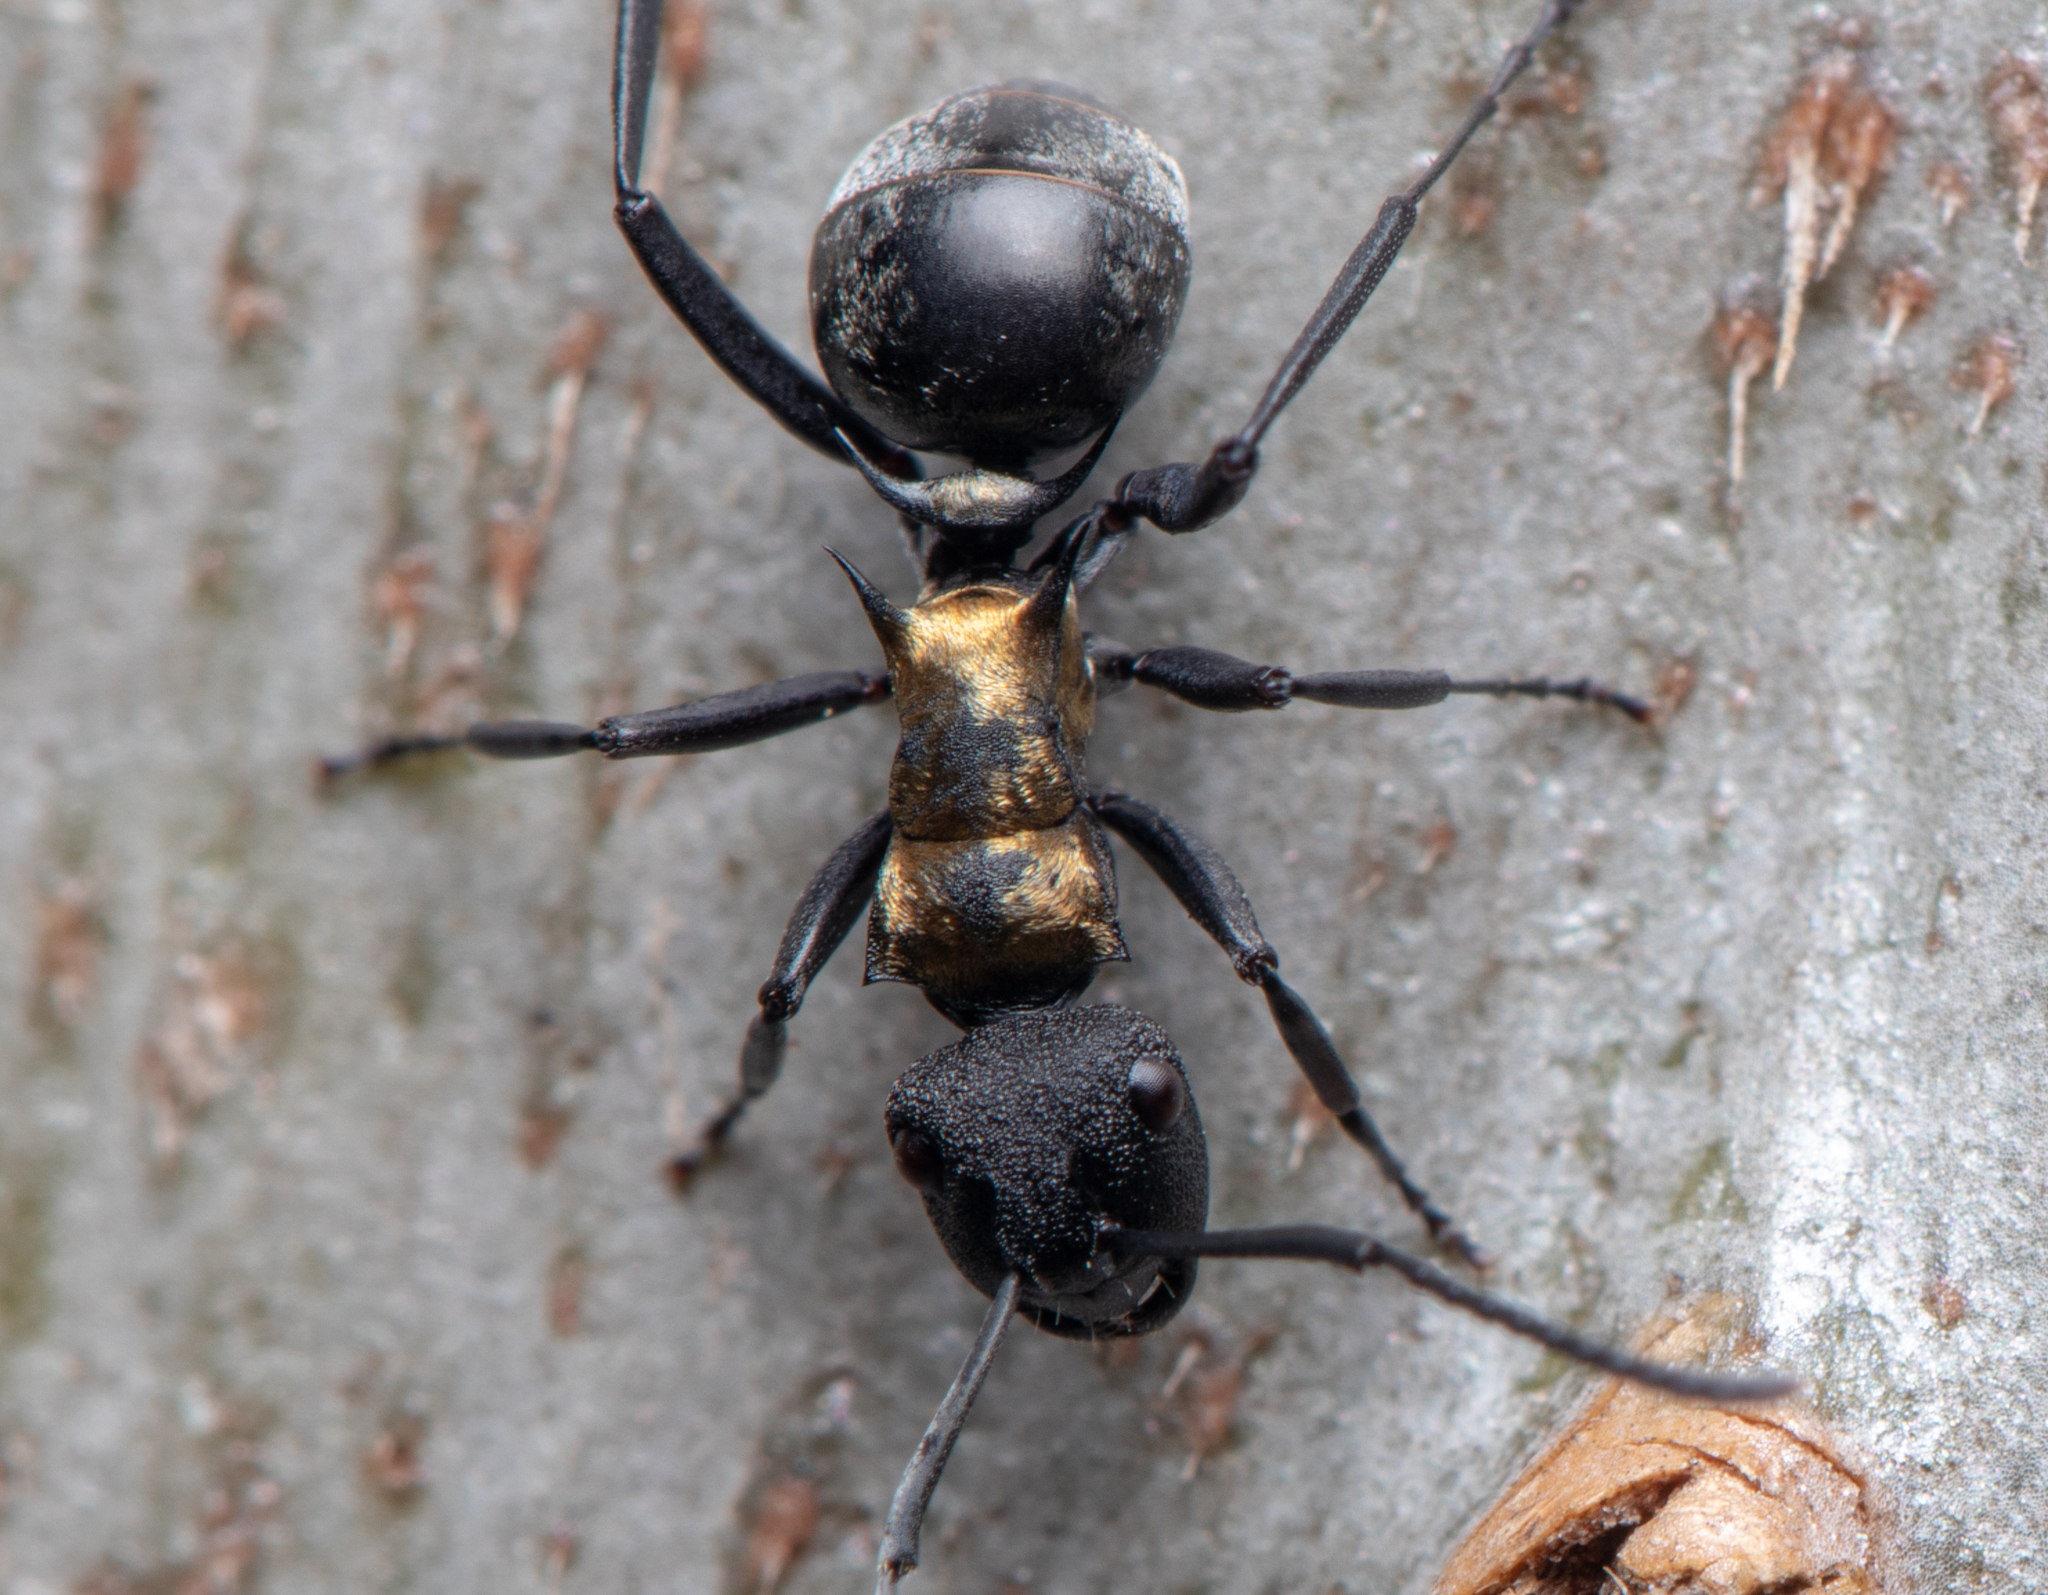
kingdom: Animalia
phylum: Arthropoda
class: Insecta
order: Hymenoptera
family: Formicidae
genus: Polyrhachis
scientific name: Polyrhachis ornata
